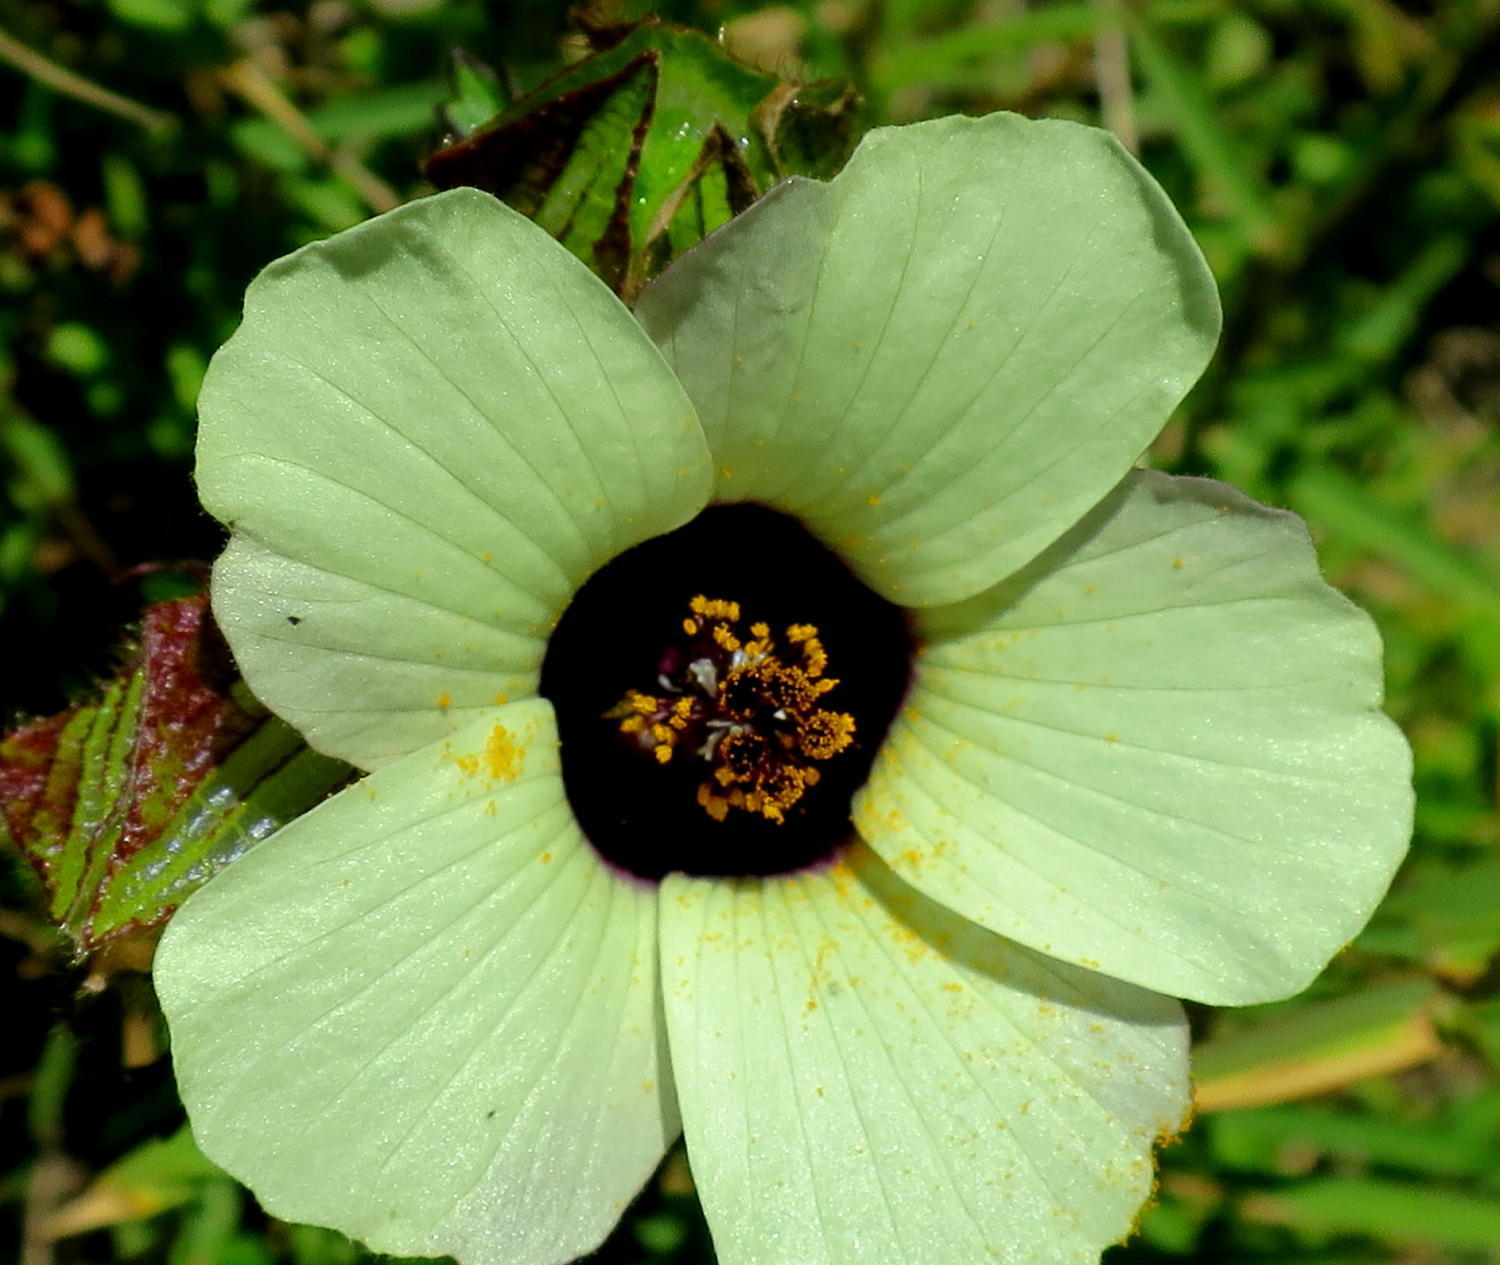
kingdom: Plantae
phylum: Tracheophyta
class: Magnoliopsida
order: Malvales
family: Malvaceae
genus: Hibiscus
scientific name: Hibiscus trionum
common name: Bladder ketmia
